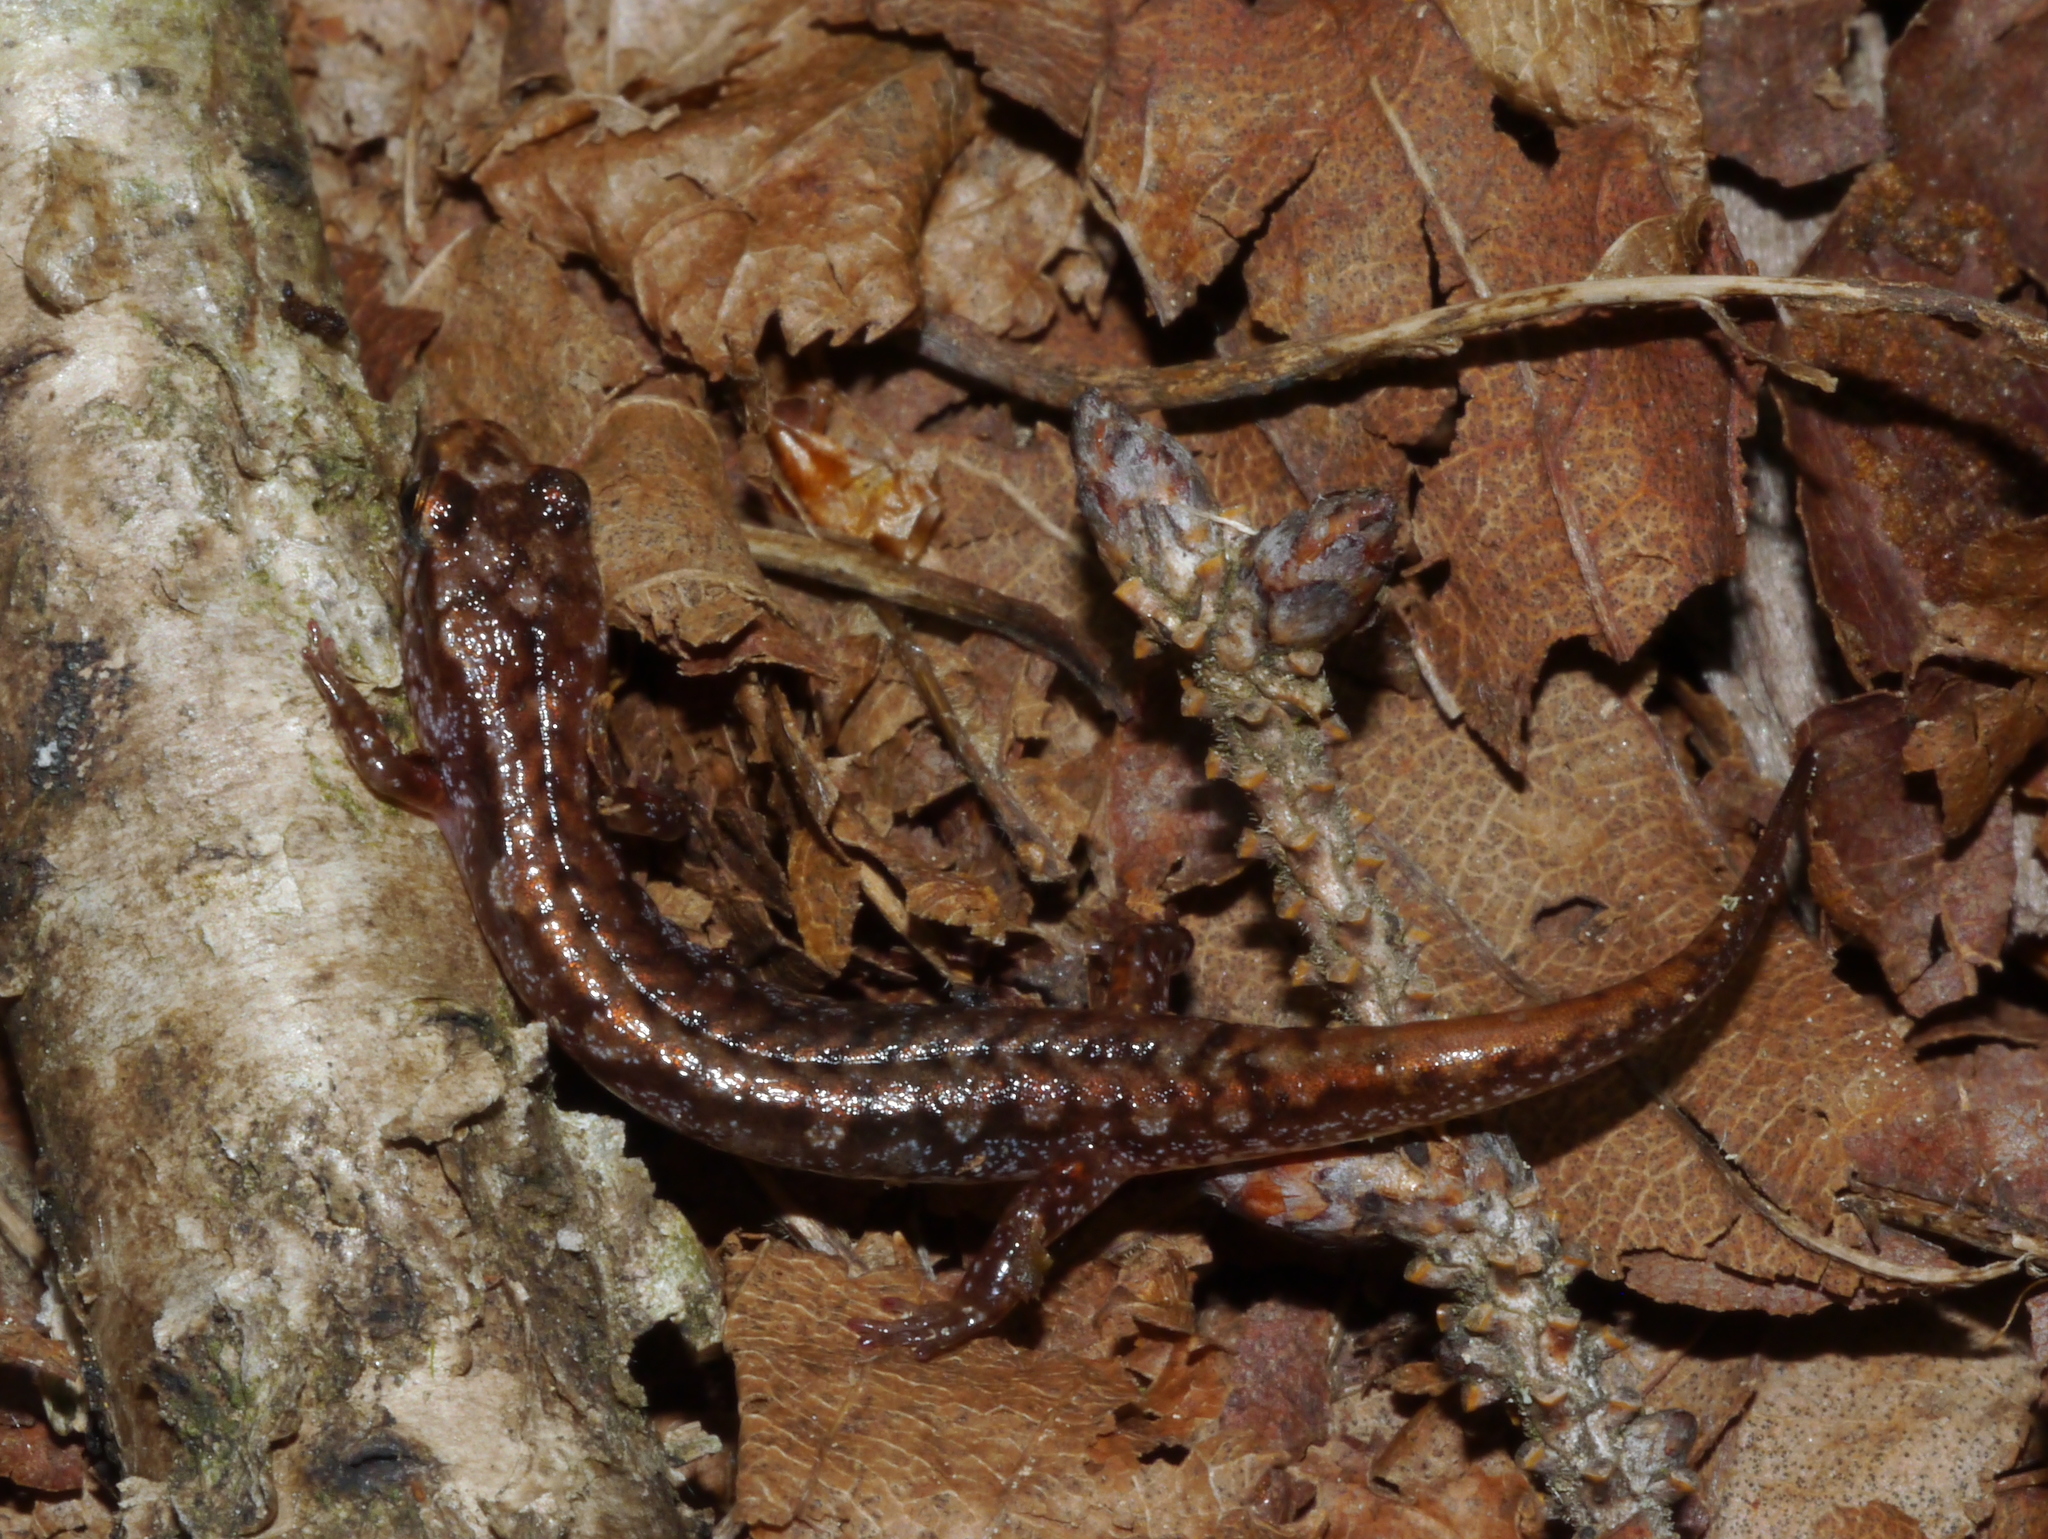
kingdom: Animalia
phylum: Chordata
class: Amphibia
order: Caudata
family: Plethodontidae
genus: Desmognathus
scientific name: Desmognathus wrighti
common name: Pygmy salamander
